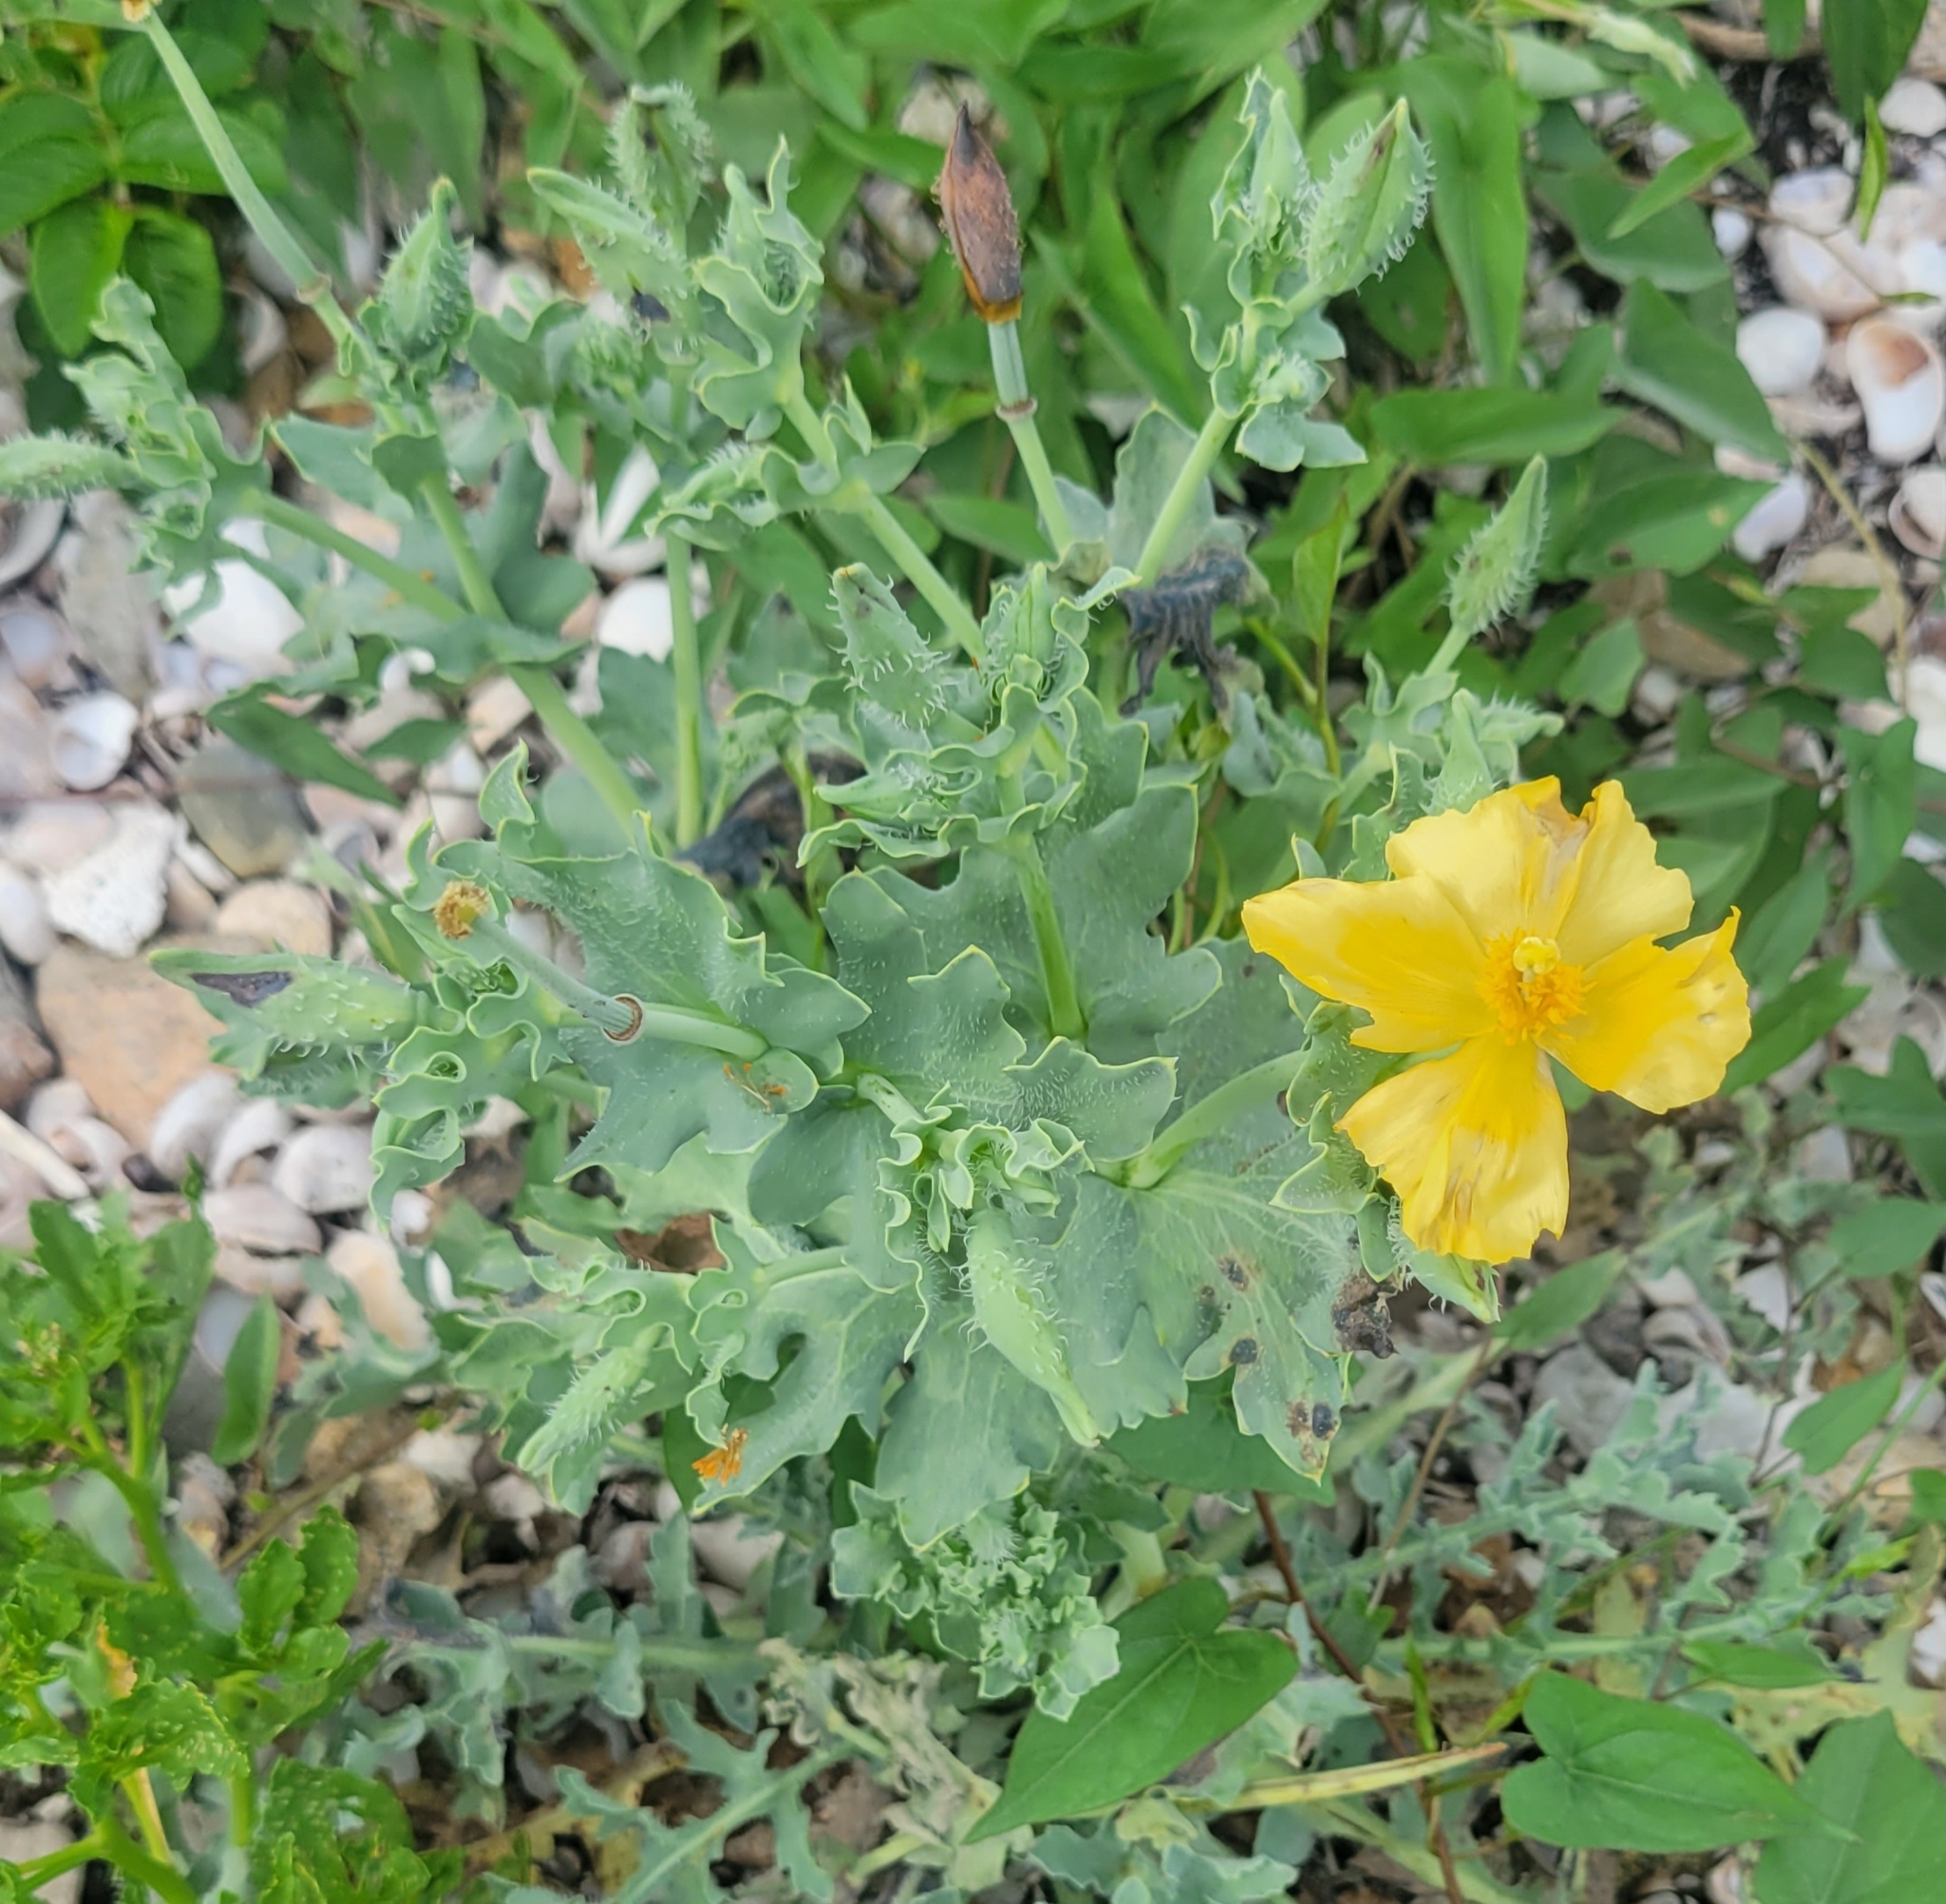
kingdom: Plantae
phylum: Tracheophyta
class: Magnoliopsida
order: Ranunculales
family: Papaveraceae
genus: Glaucium
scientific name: Glaucium flavum
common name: Yellow horned-poppy
